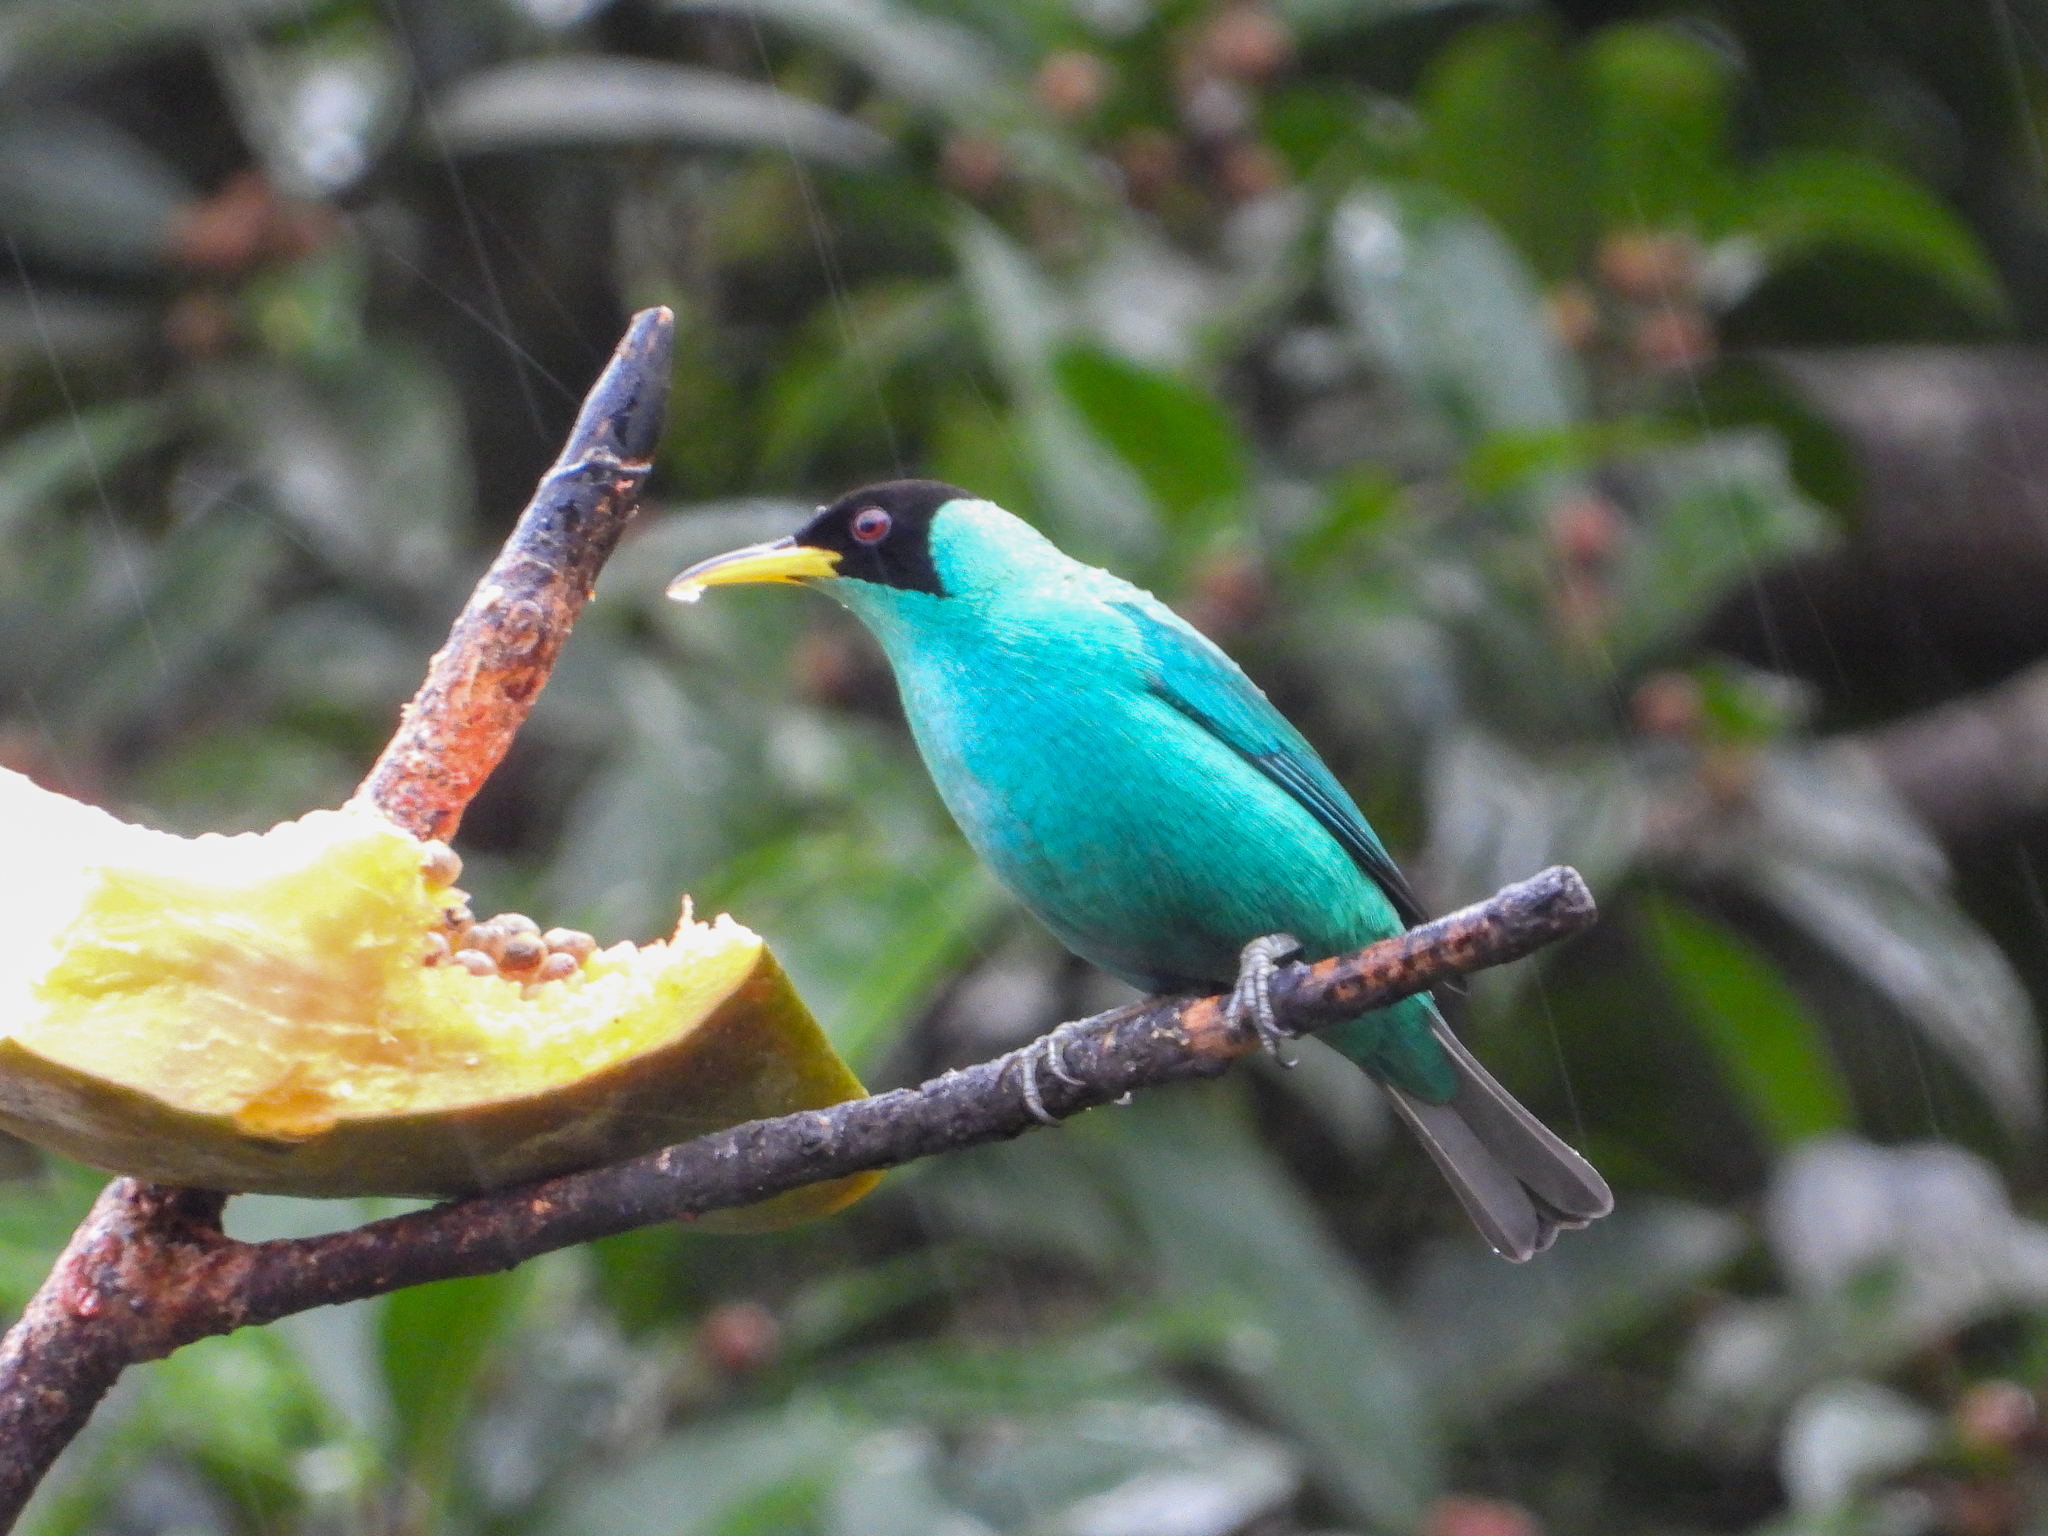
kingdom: Animalia
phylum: Chordata
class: Aves
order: Passeriformes
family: Thraupidae
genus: Chlorophanes
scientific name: Chlorophanes spiza
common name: Green honeycreeper
